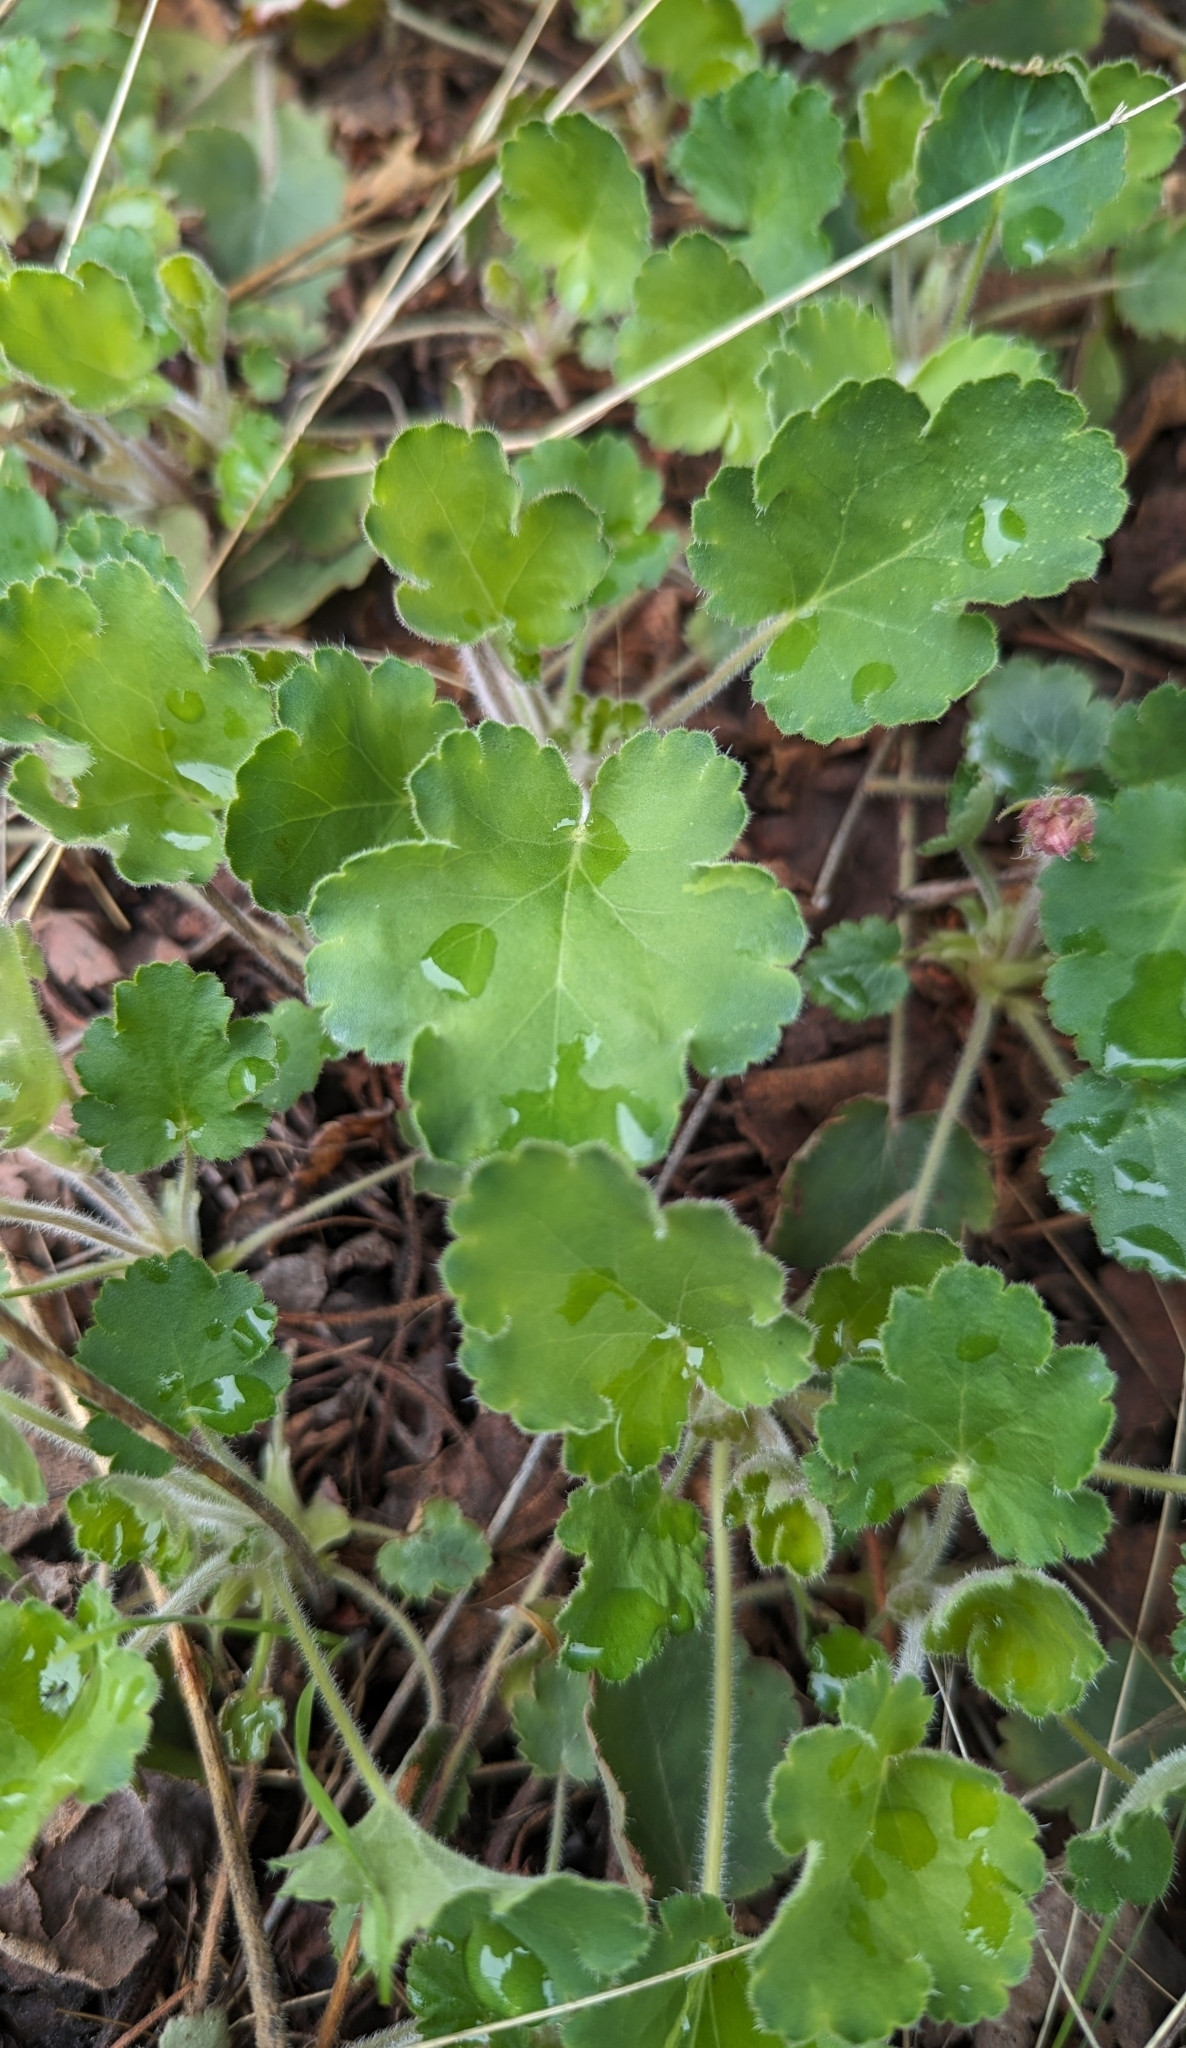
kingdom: Plantae
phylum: Tracheophyta
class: Magnoliopsida
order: Saxifragales
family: Saxifragaceae
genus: Heuchera
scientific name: Heuchera cylindrica
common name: Mat alumroot
